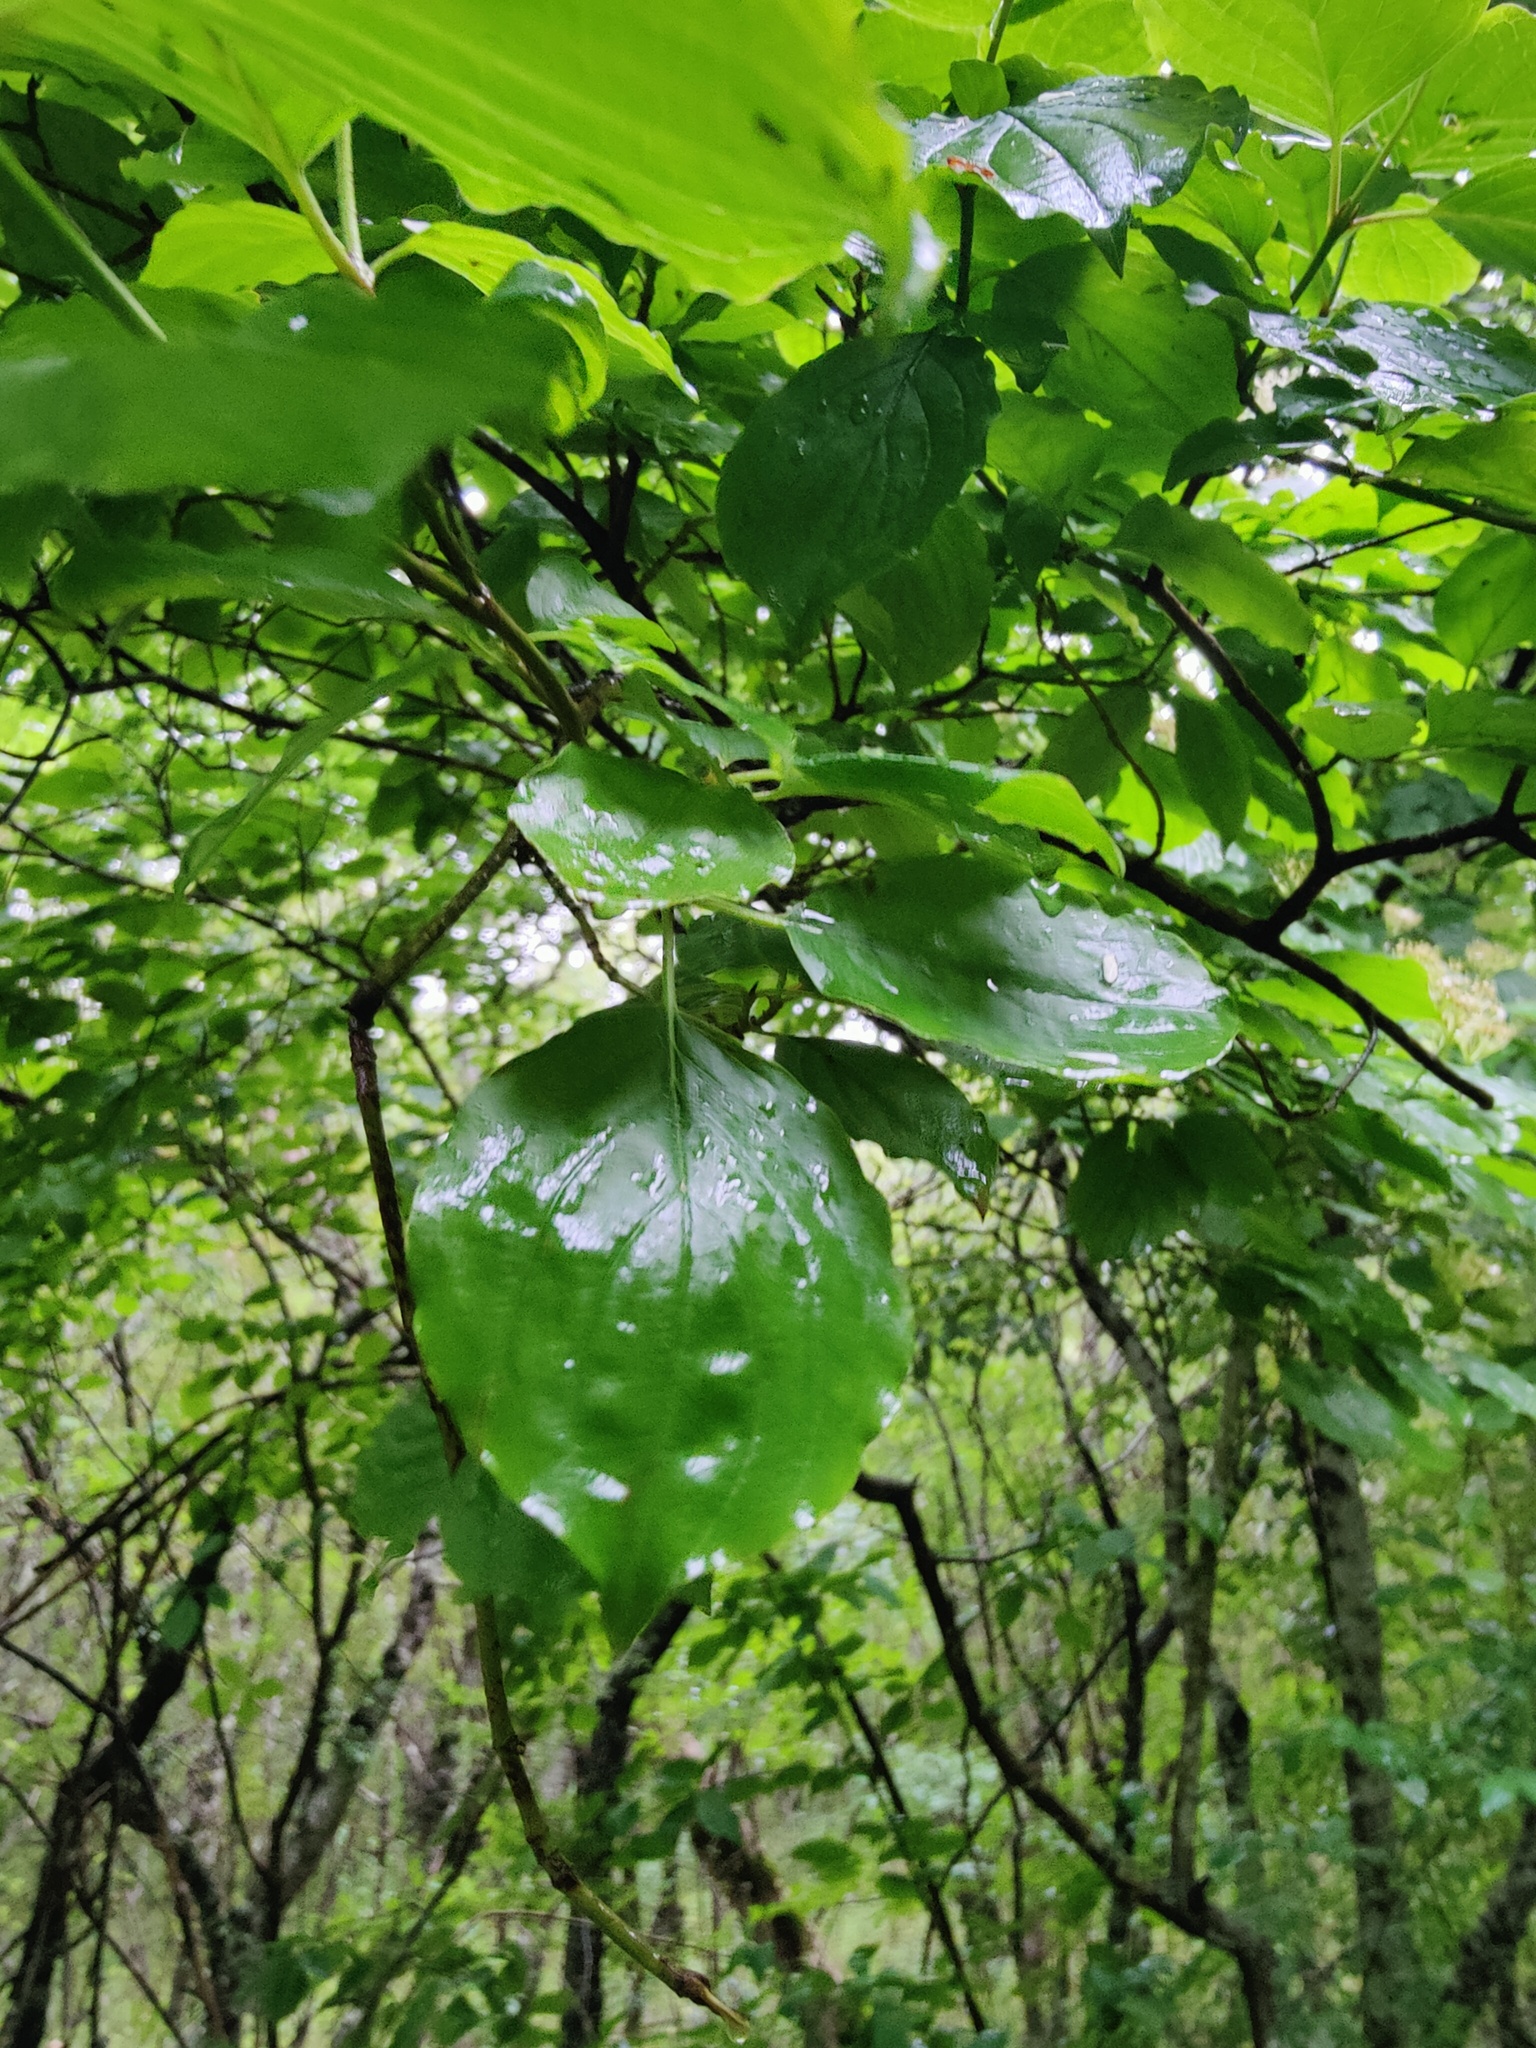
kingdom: Plantae
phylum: Tracheophyta
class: Magnoliopsida
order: Cornales
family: Cornaceae
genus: Cornus
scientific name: Cornus sanguinea
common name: Dogwood
